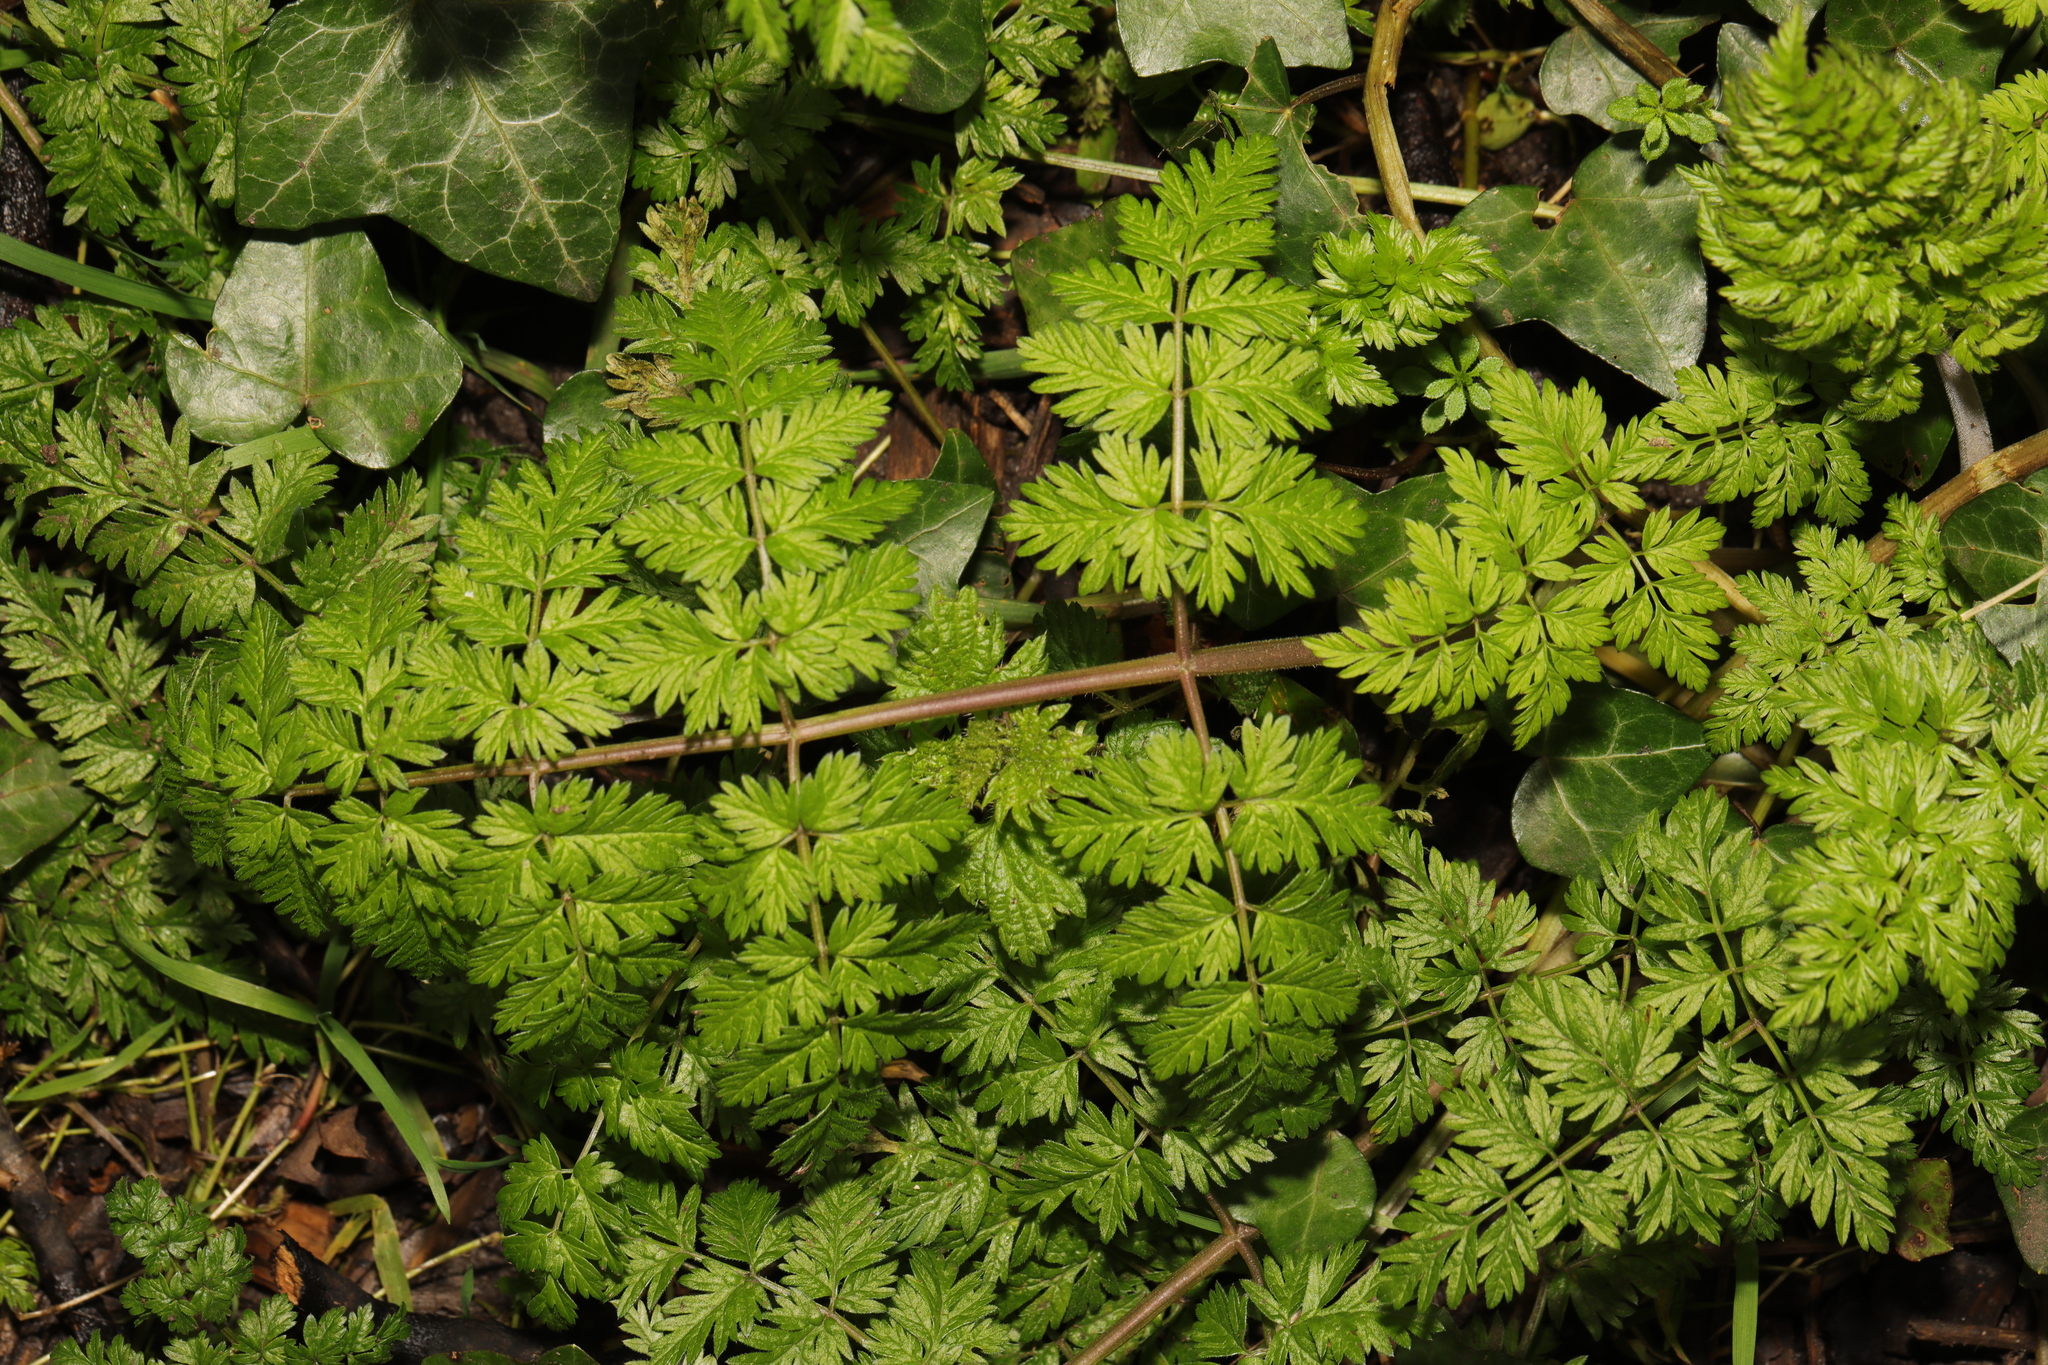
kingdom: Plantae
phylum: Tracheophyta
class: Magnoliopsida
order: Apiales
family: Apiaceae
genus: Anthriscus
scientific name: Anthriscus sylvestris
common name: Cow parsley
